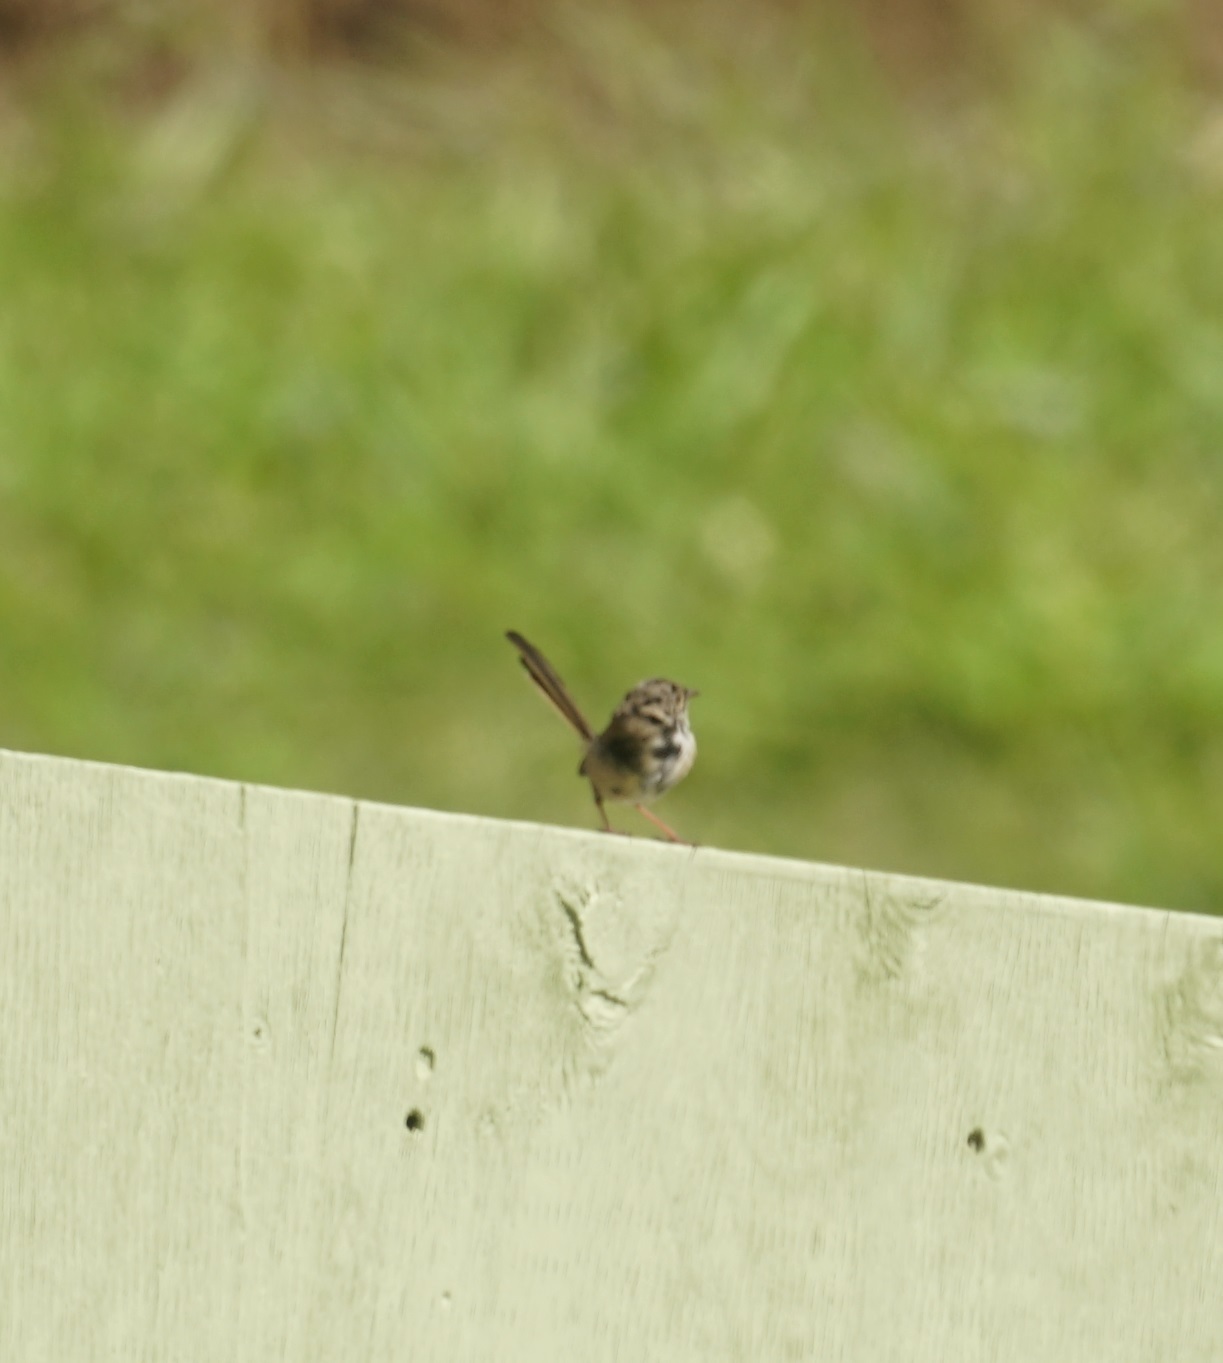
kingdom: Animalia
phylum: Chordata
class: Aves
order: Passeriformes
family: Maluridae
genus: Malurus
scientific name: Malurus melanocephalus
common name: Red-backed fairywren
